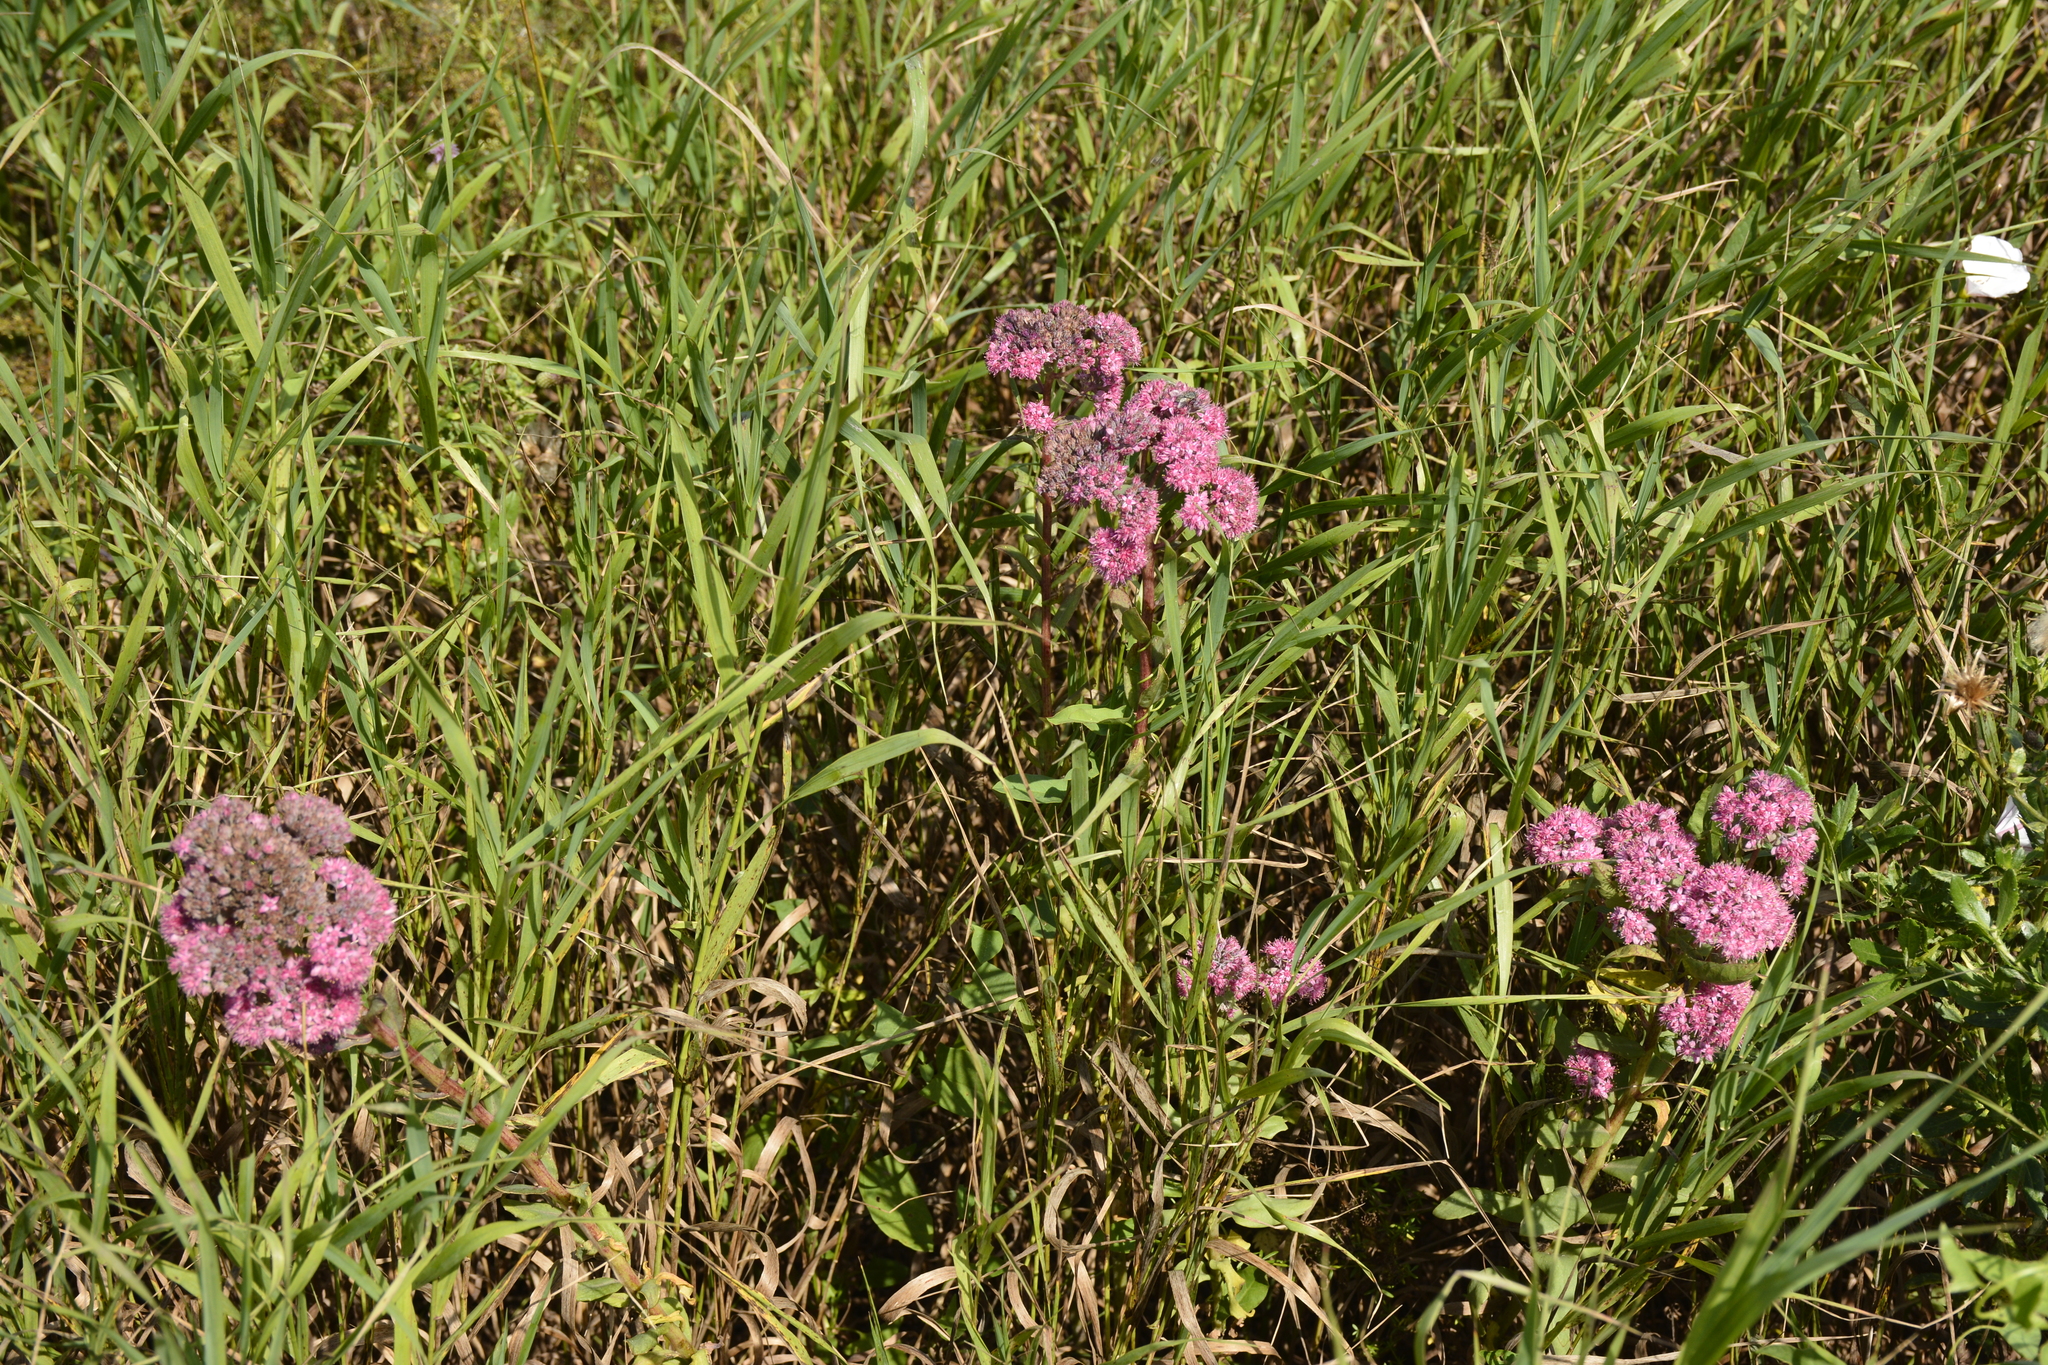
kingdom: Plantae
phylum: Tracheophyta
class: Magnoliopsida
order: Saxifragales
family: Crassulaceae
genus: Hylotelephium
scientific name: Hylotelephium telephium
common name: Live-forever
